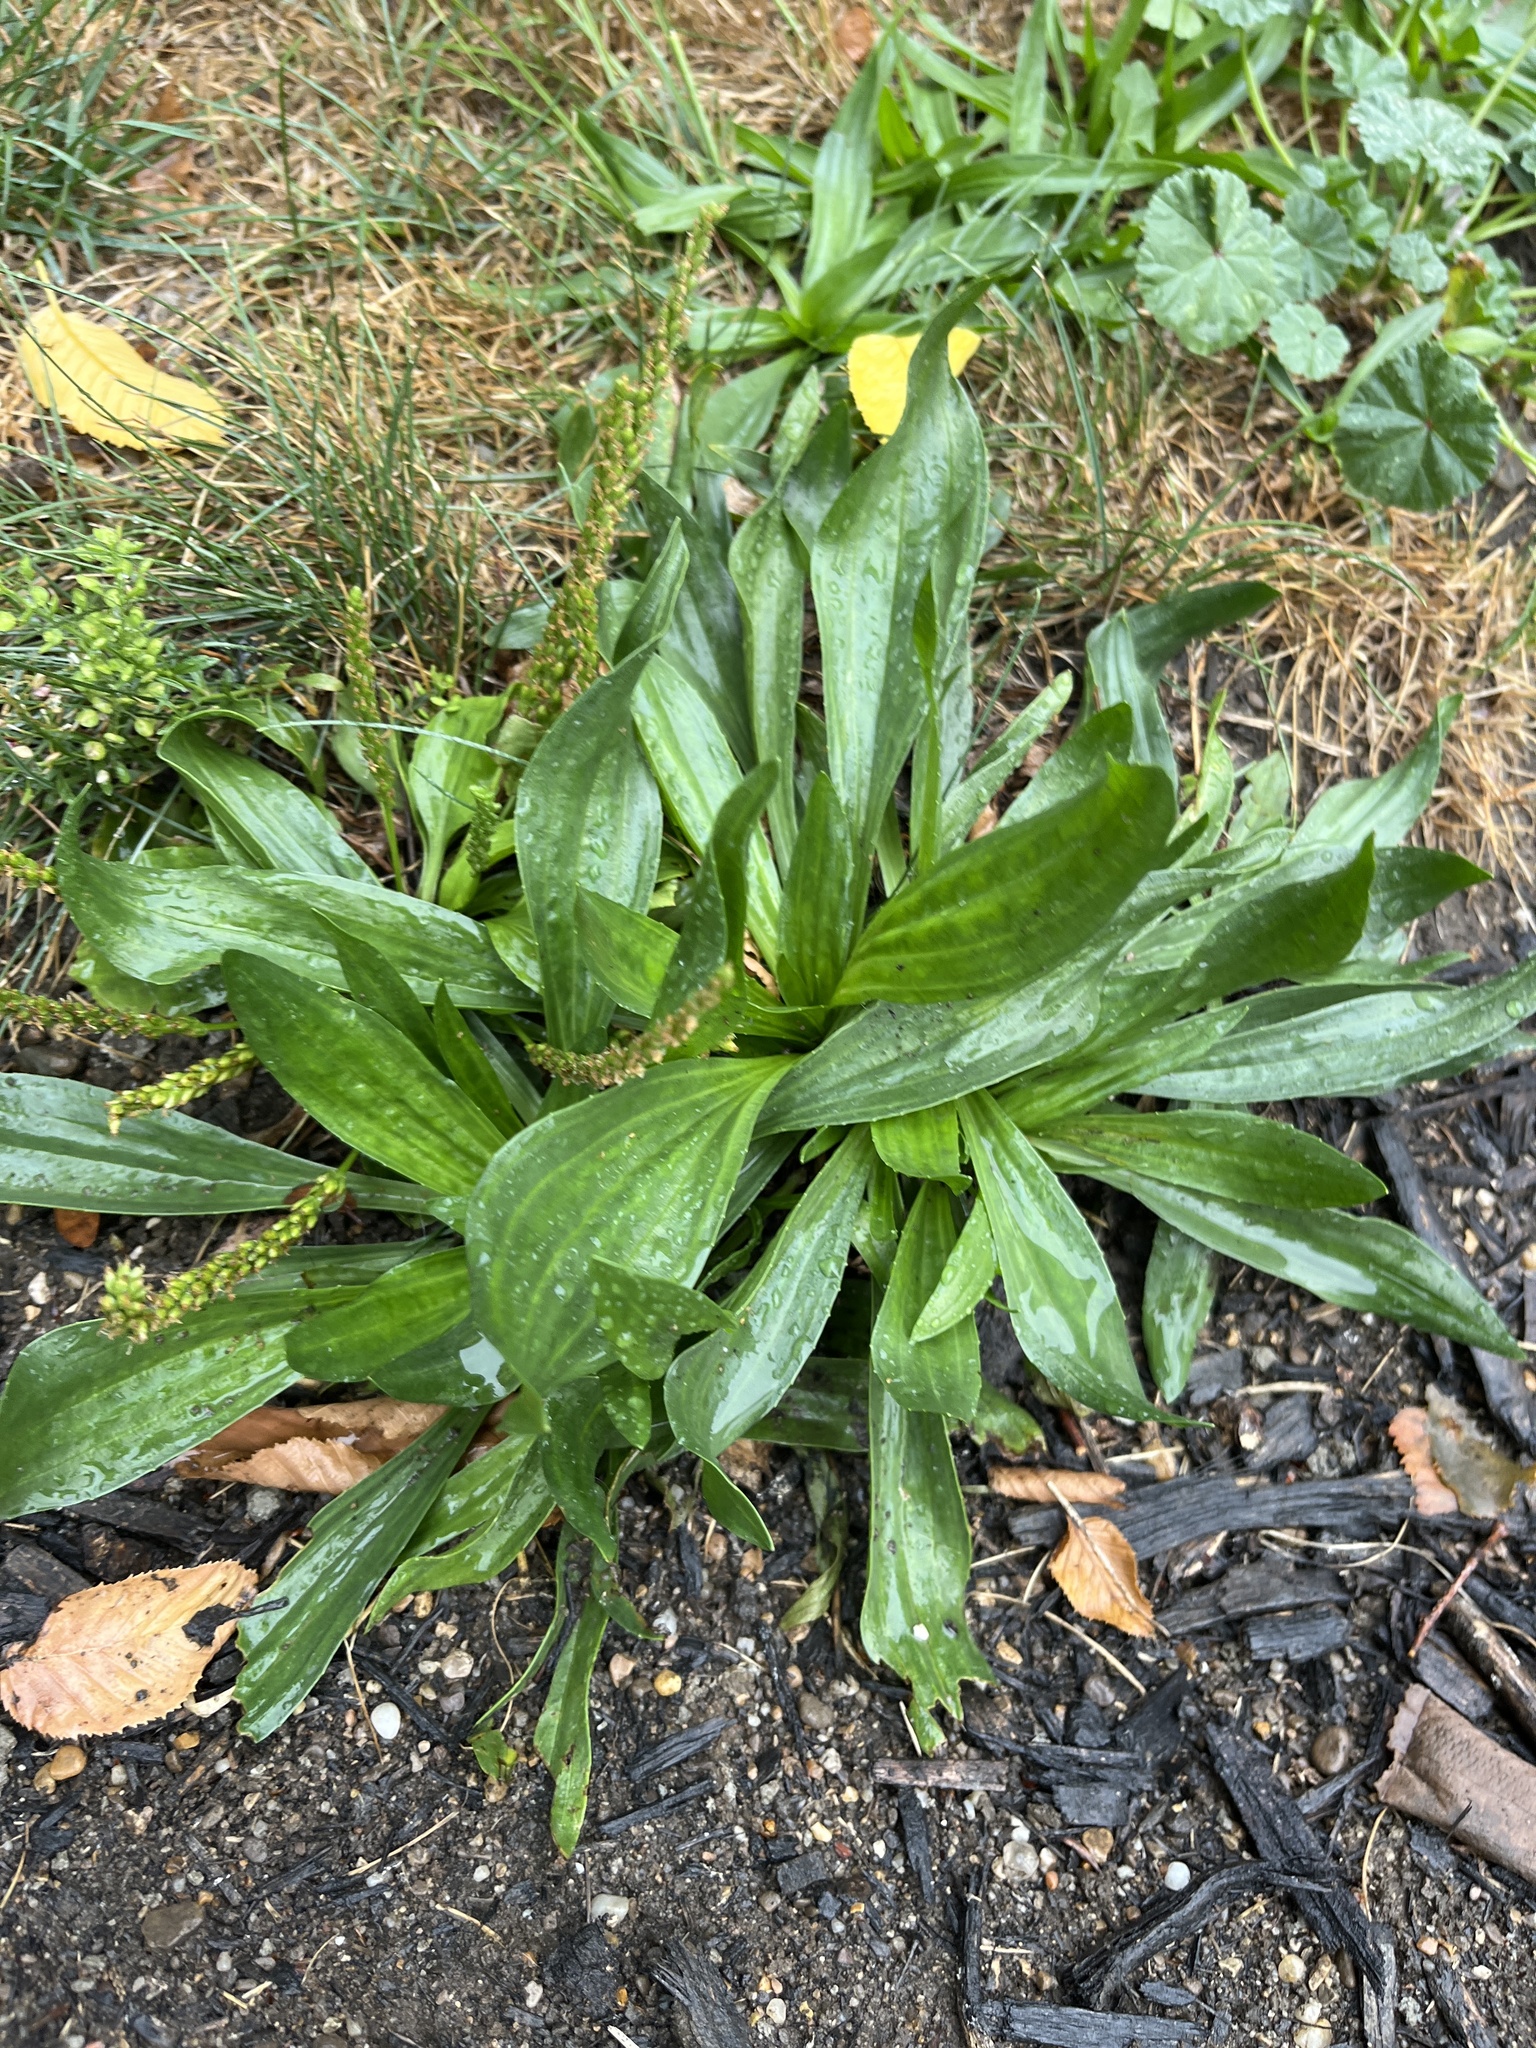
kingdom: Plantae
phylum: Tracheophyta
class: Magnoliopsida
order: Lamiales
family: Plantaginaceae
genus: Plantago
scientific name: Plantago lanceolata
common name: Ribwort plantain
